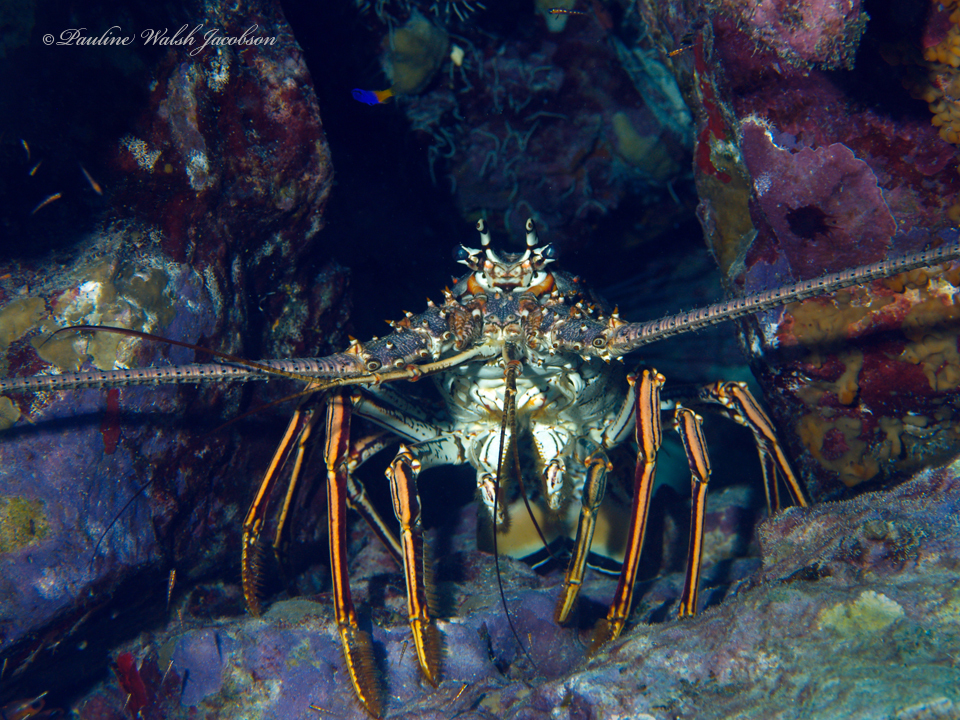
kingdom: Animalia
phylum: Arthropoda
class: Malacostraca
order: Decapoda
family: Palinuridae
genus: Panulirus
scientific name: Panulirus argus
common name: Caribbean spiny lobster
